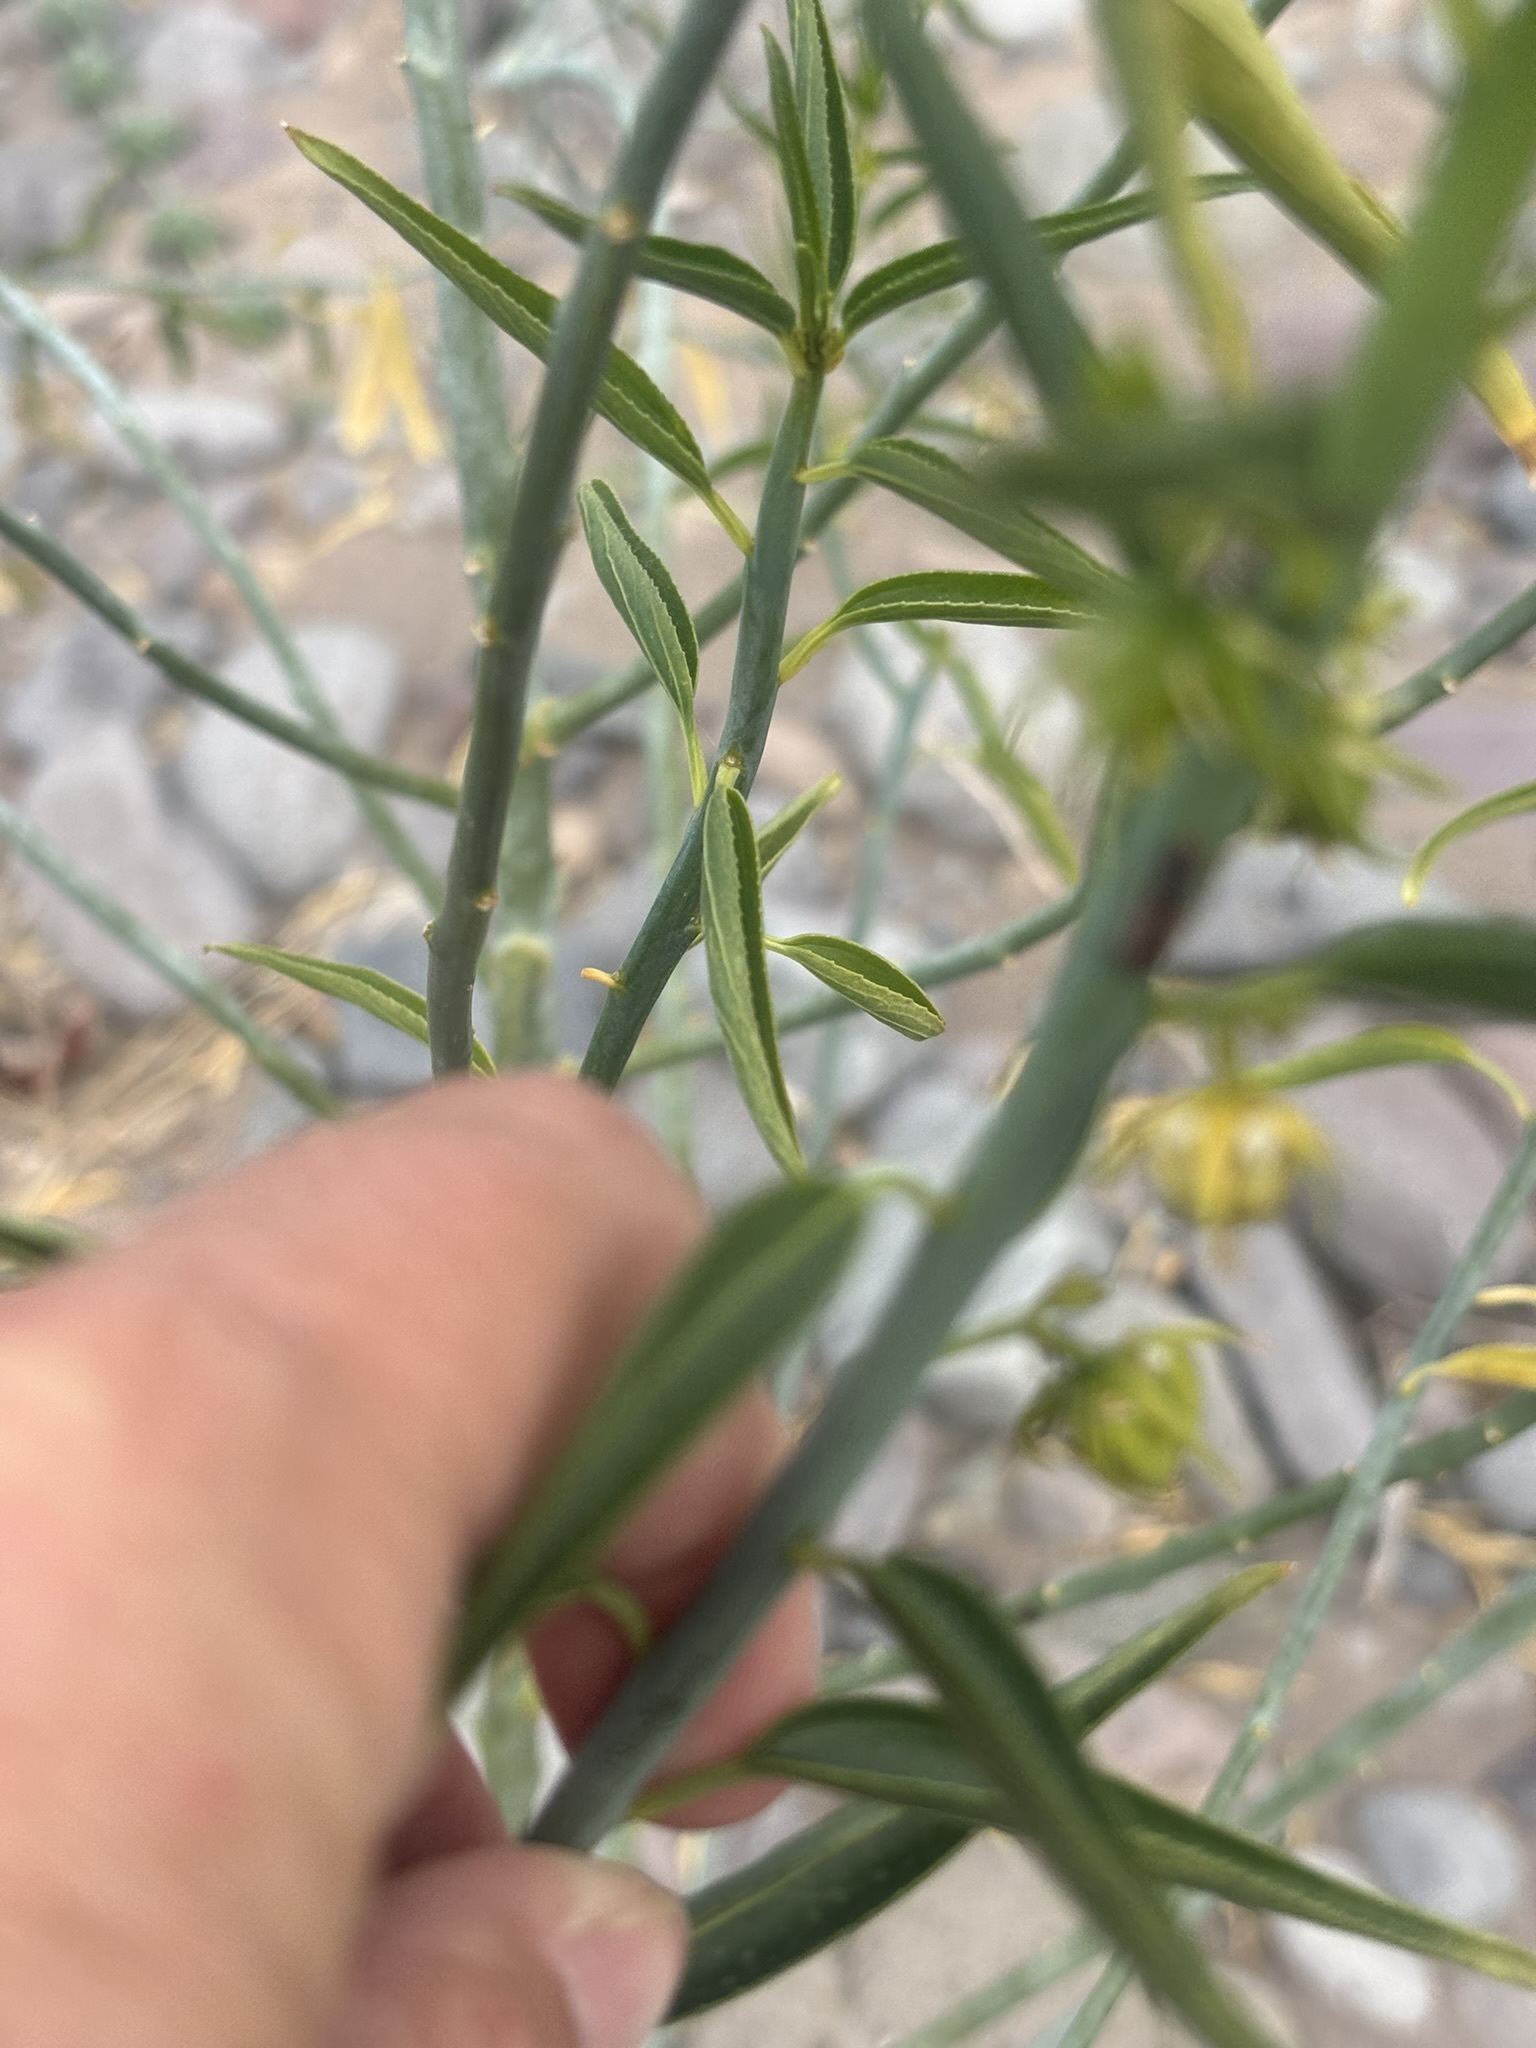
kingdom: Plantae
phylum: Tracheophyta
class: Magnoliopsida
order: Malpighiales
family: Euphorbiaceae
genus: Ditaxis
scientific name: Ditaxis brandegeei
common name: Sonoran silverbush
